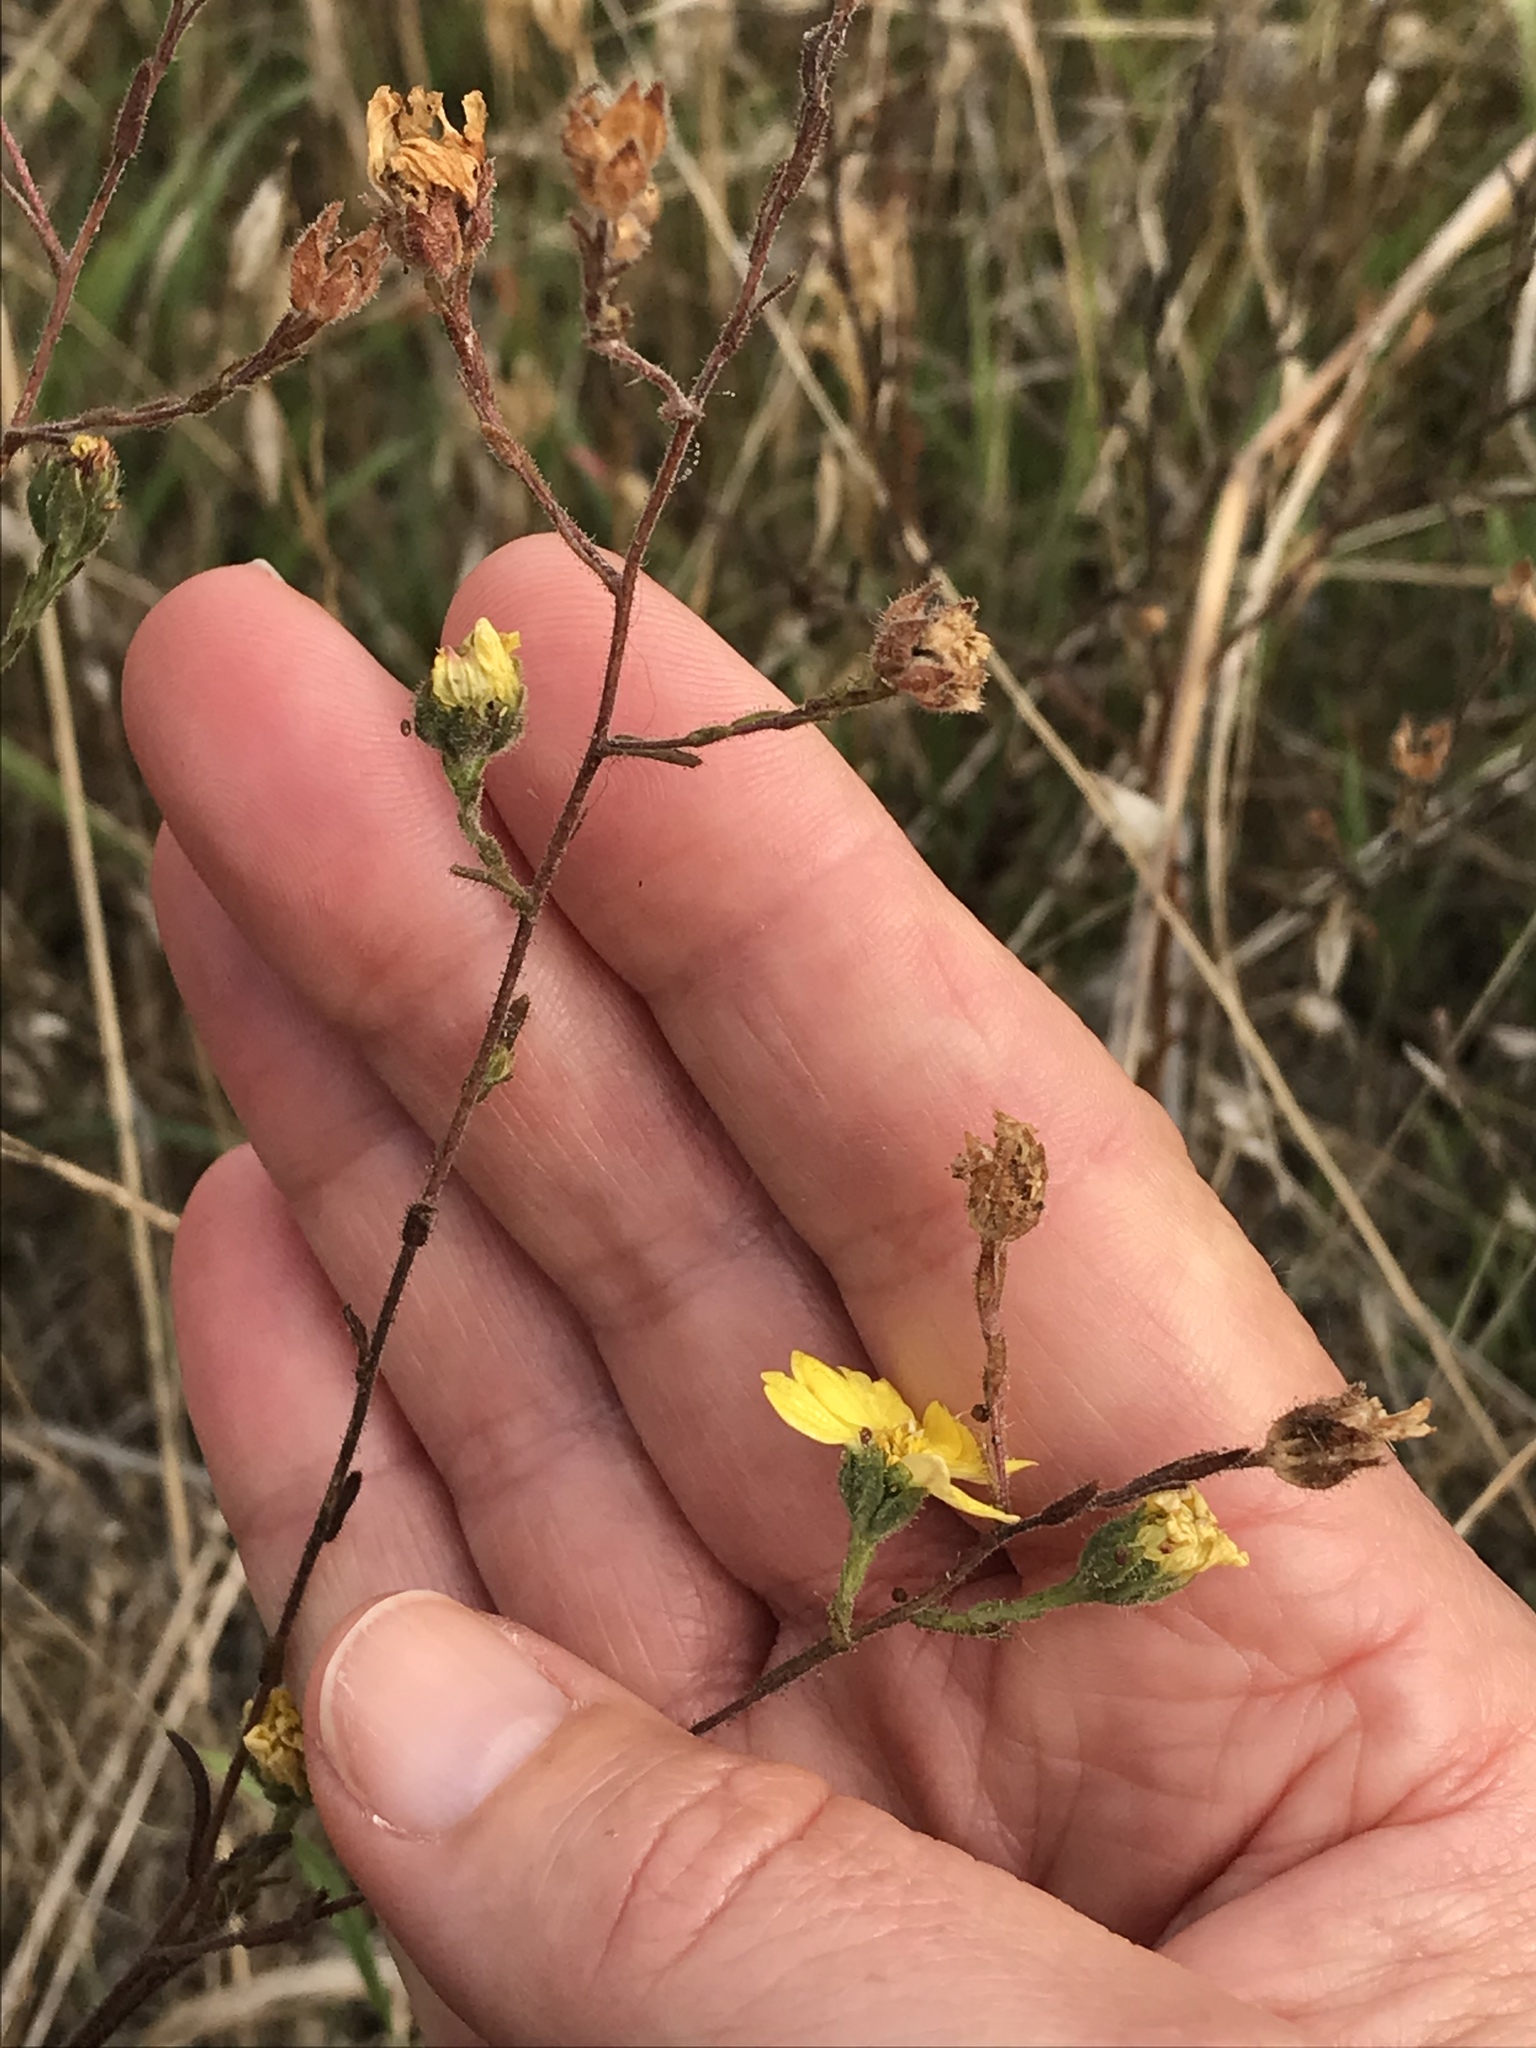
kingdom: Plantae
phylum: Tracheophyta
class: Magnoliopsida
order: Asterales
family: Asteraceae
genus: Hemizonia
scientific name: Hemizonia congesta
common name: Hayfield tarweed
